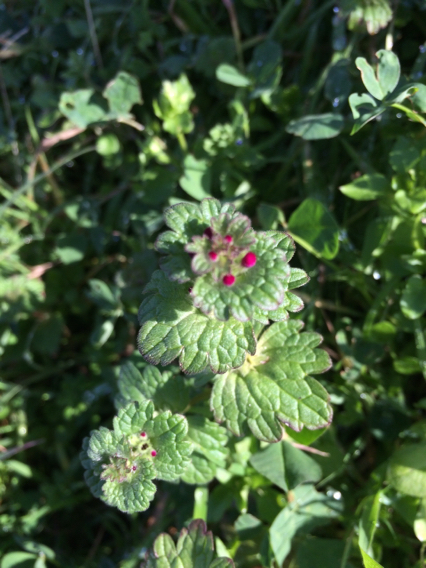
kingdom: Plantae
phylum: Tracheophyta
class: Magnoliopsida
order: Lamiales
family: Lamiaceae
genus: Lamium
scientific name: Lamium amplexicaule
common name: Henbit dead-nettle
